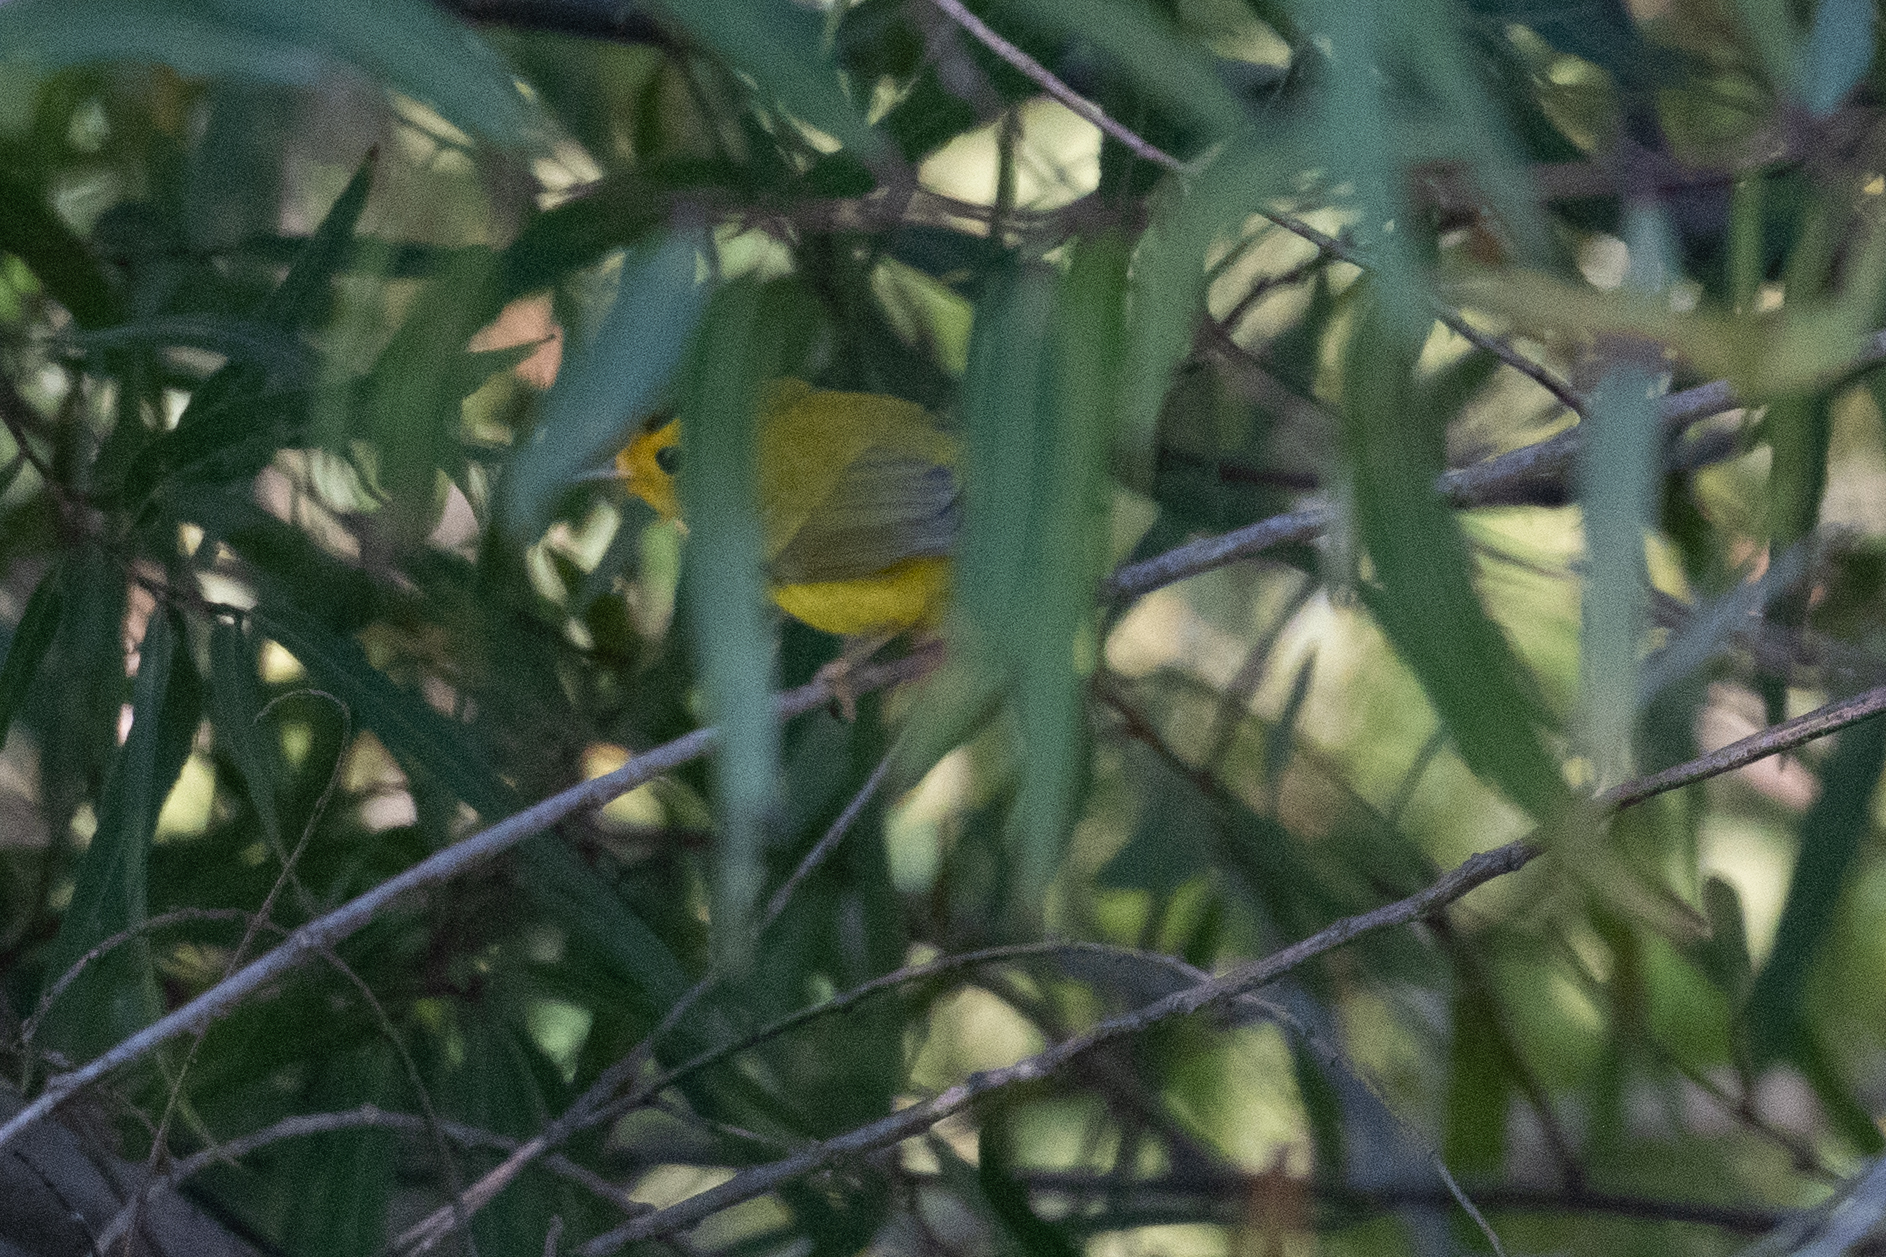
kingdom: Animalia
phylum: Chordata
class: Aves
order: Passeriformes
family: Parulidae
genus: Cardellina
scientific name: Cardellina pusilla
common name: Wilson's warbler
